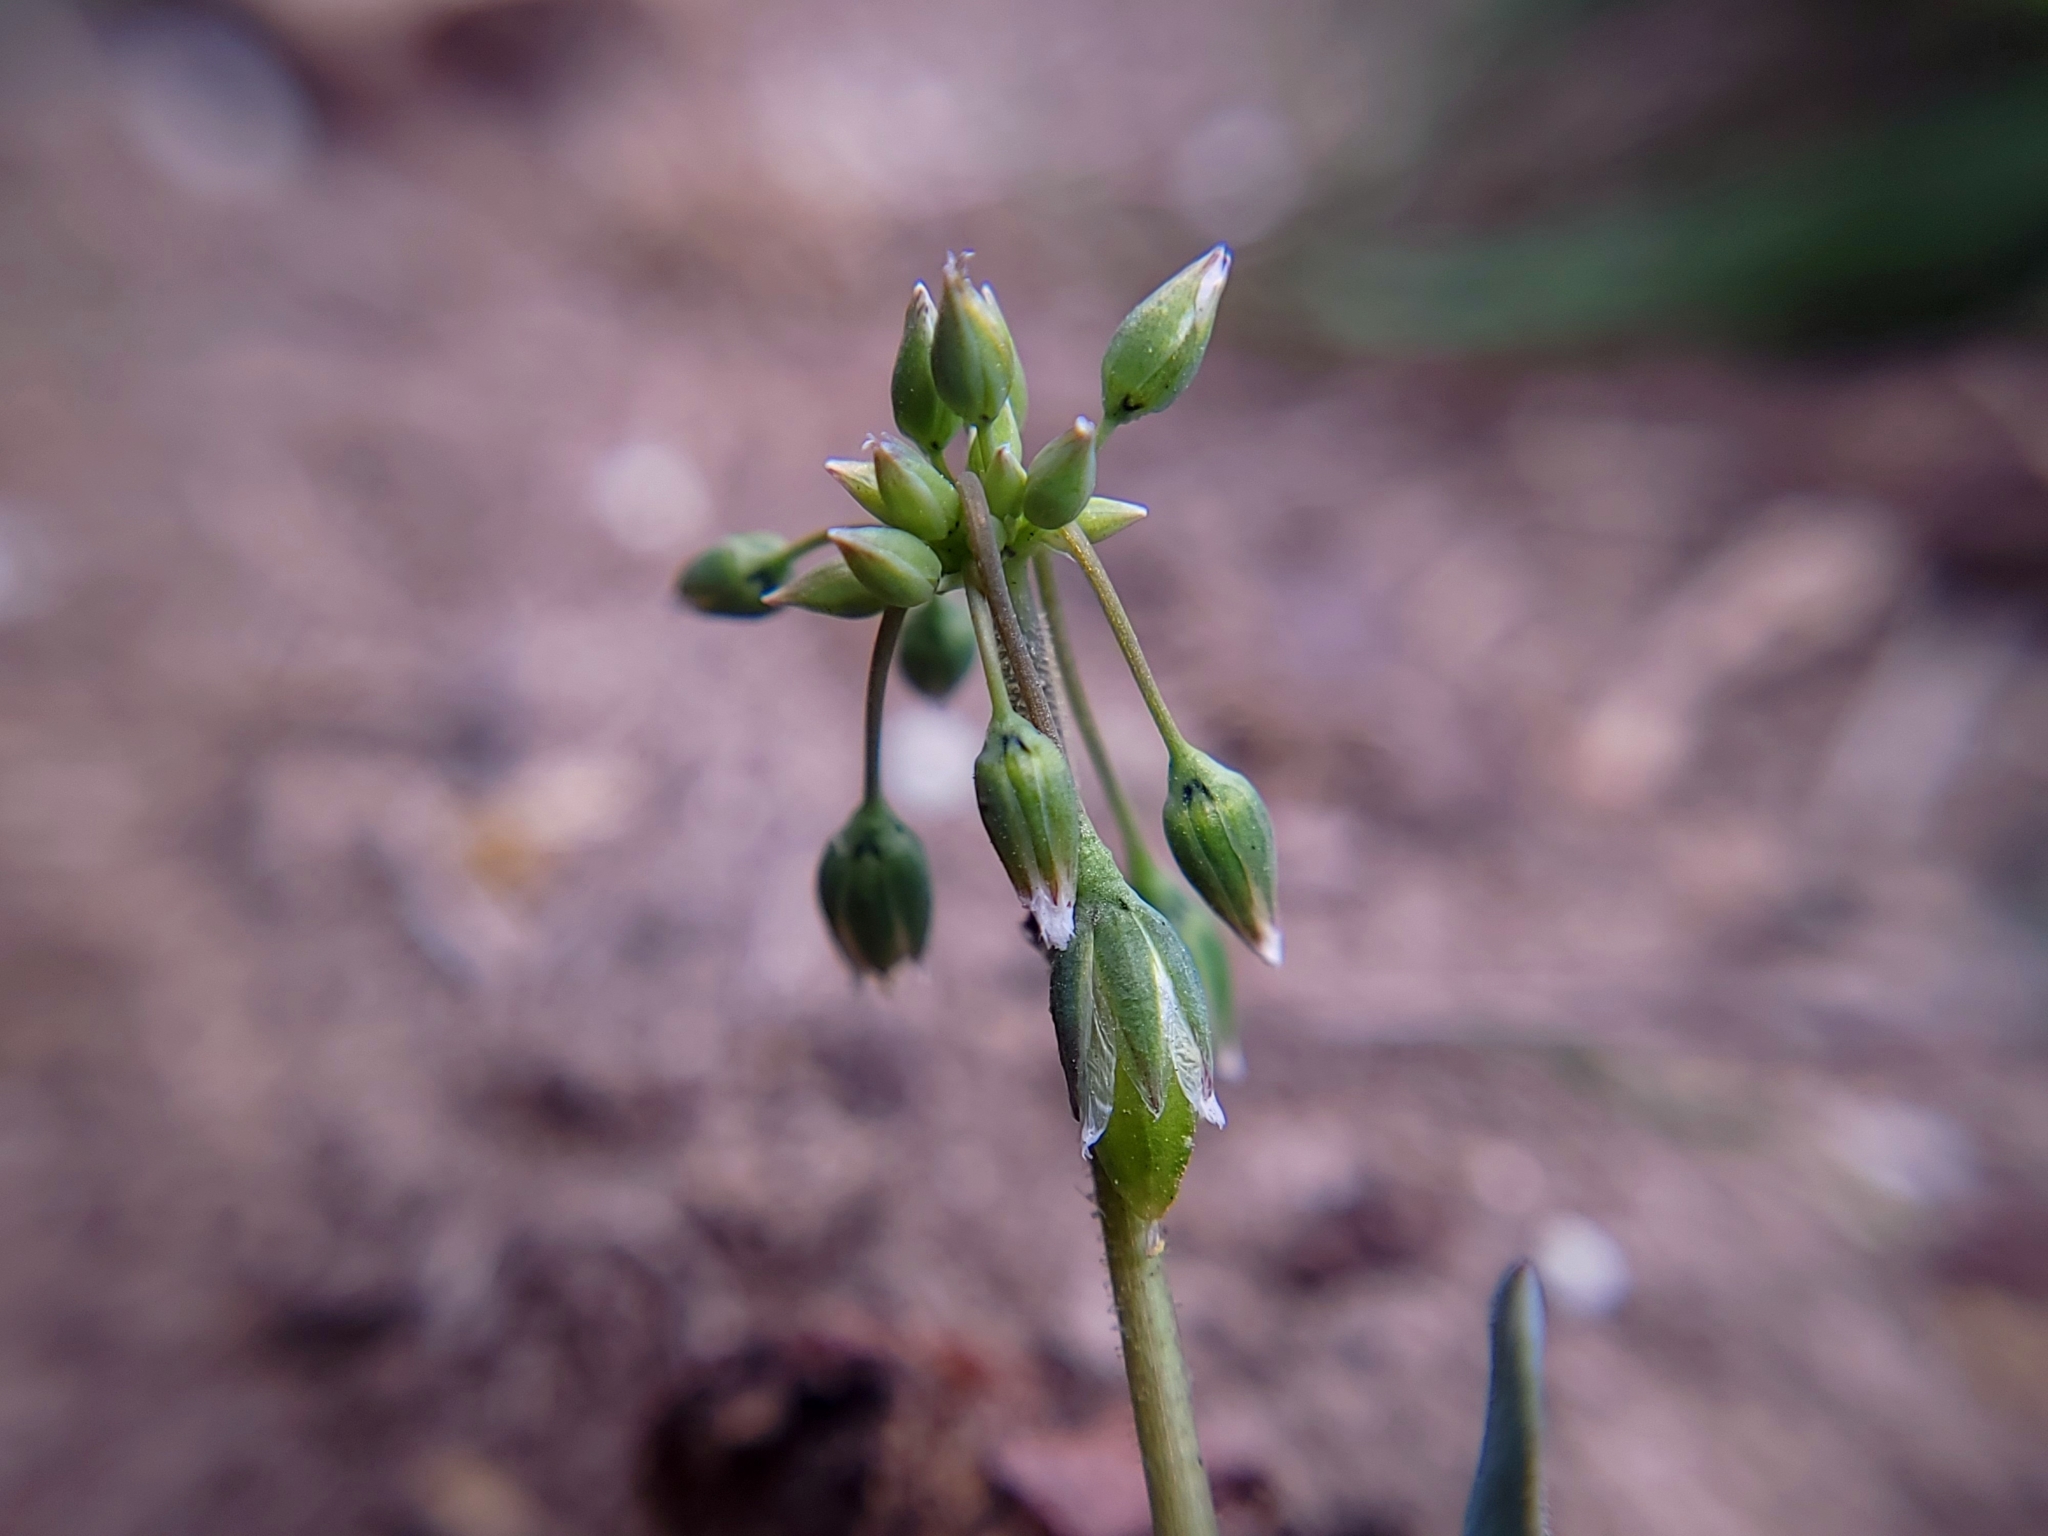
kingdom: Plantae
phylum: Tracheophyta
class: Magnoliopsida
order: Caryophyllales
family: Caryophyllaceae
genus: Holosteum
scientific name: Holosteum umbellatum
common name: Jagged chickweed
